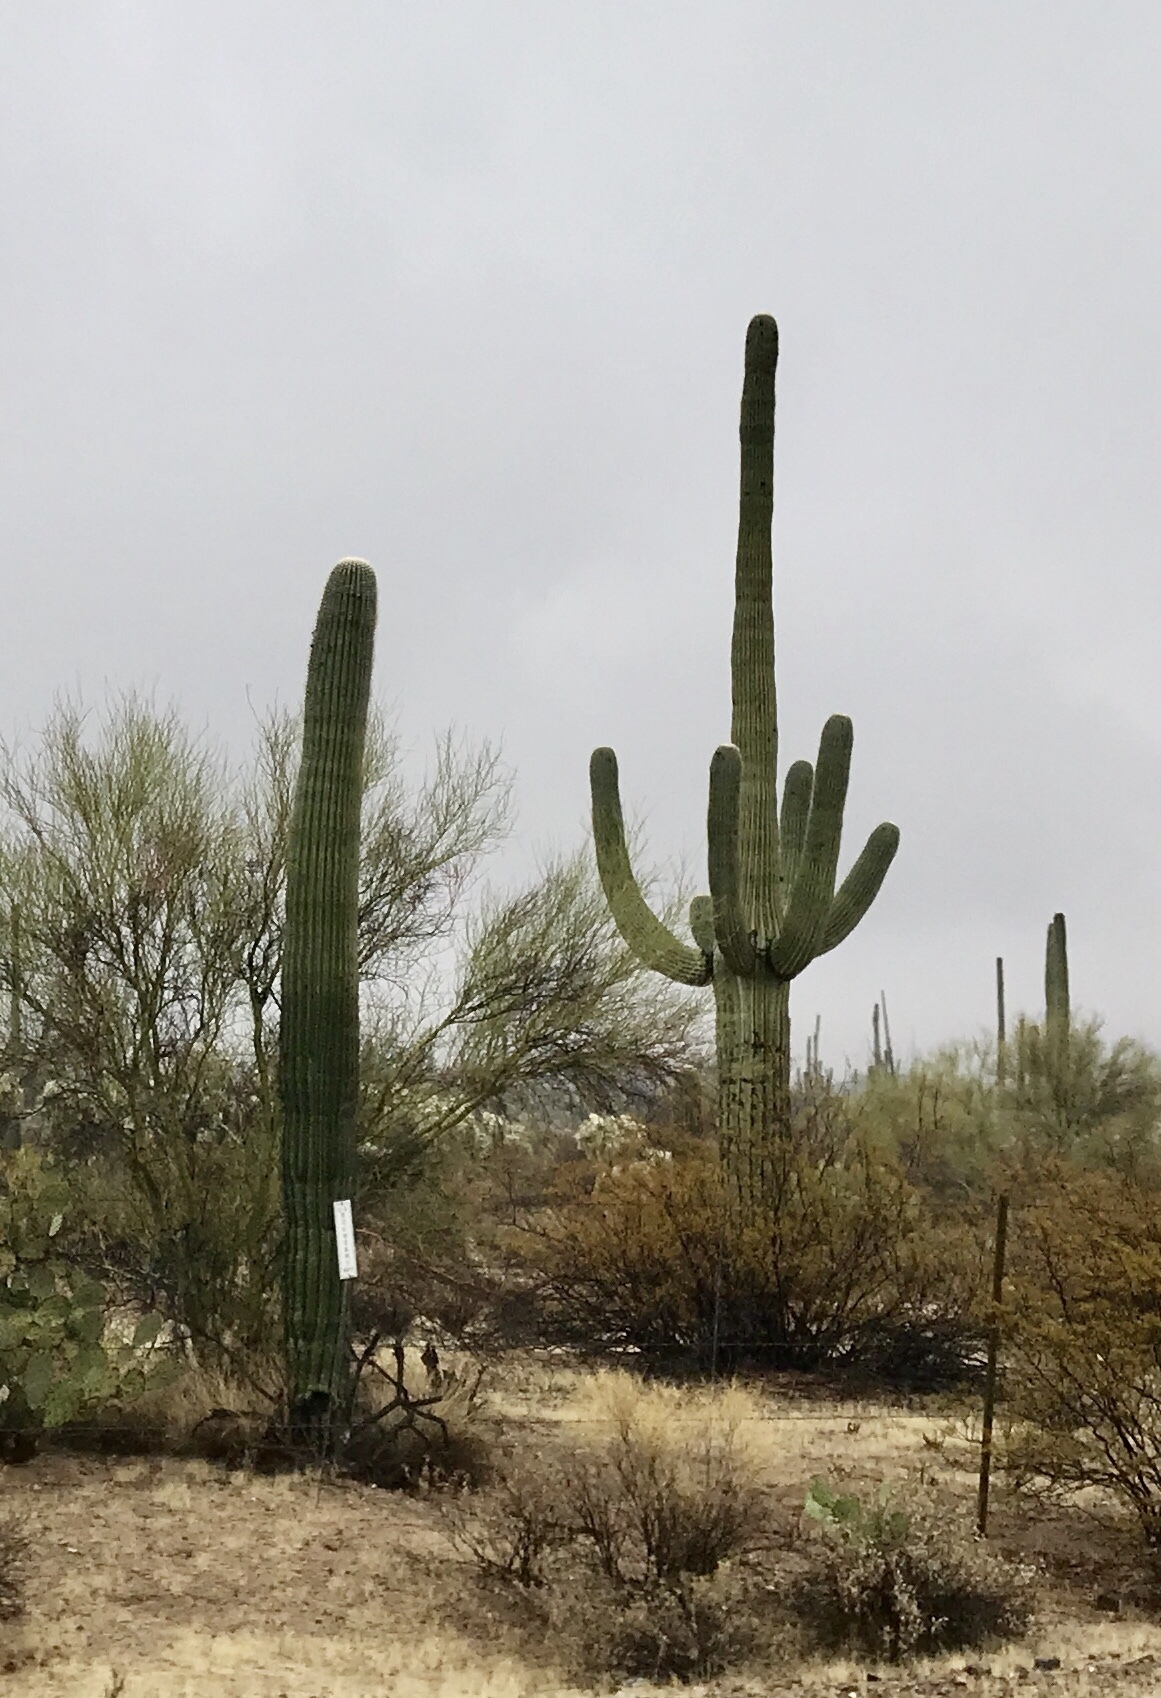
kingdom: Plantae
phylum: Tracheophyta
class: Magnoliopsida
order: Caryophyllales
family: Cactaceae
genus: Carnegiea
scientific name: Carnegiea gigantea
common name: Saguaro
